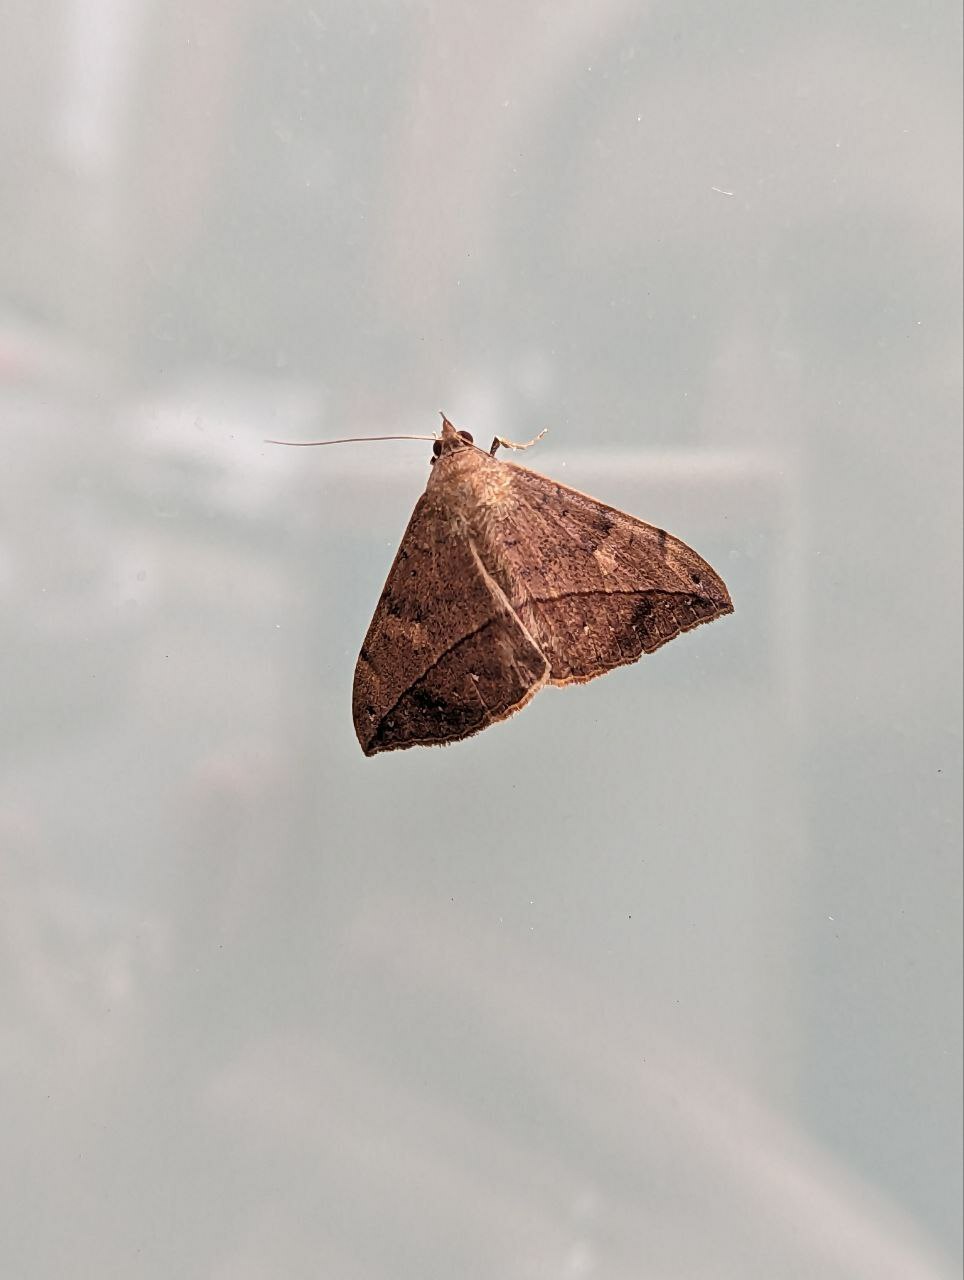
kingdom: Animalia
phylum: Arthropoda
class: Insecta
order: Lepidoptera
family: Erebidae
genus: Anticarsia
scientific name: Anticarsia gemmatalis
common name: Cutworm moth
